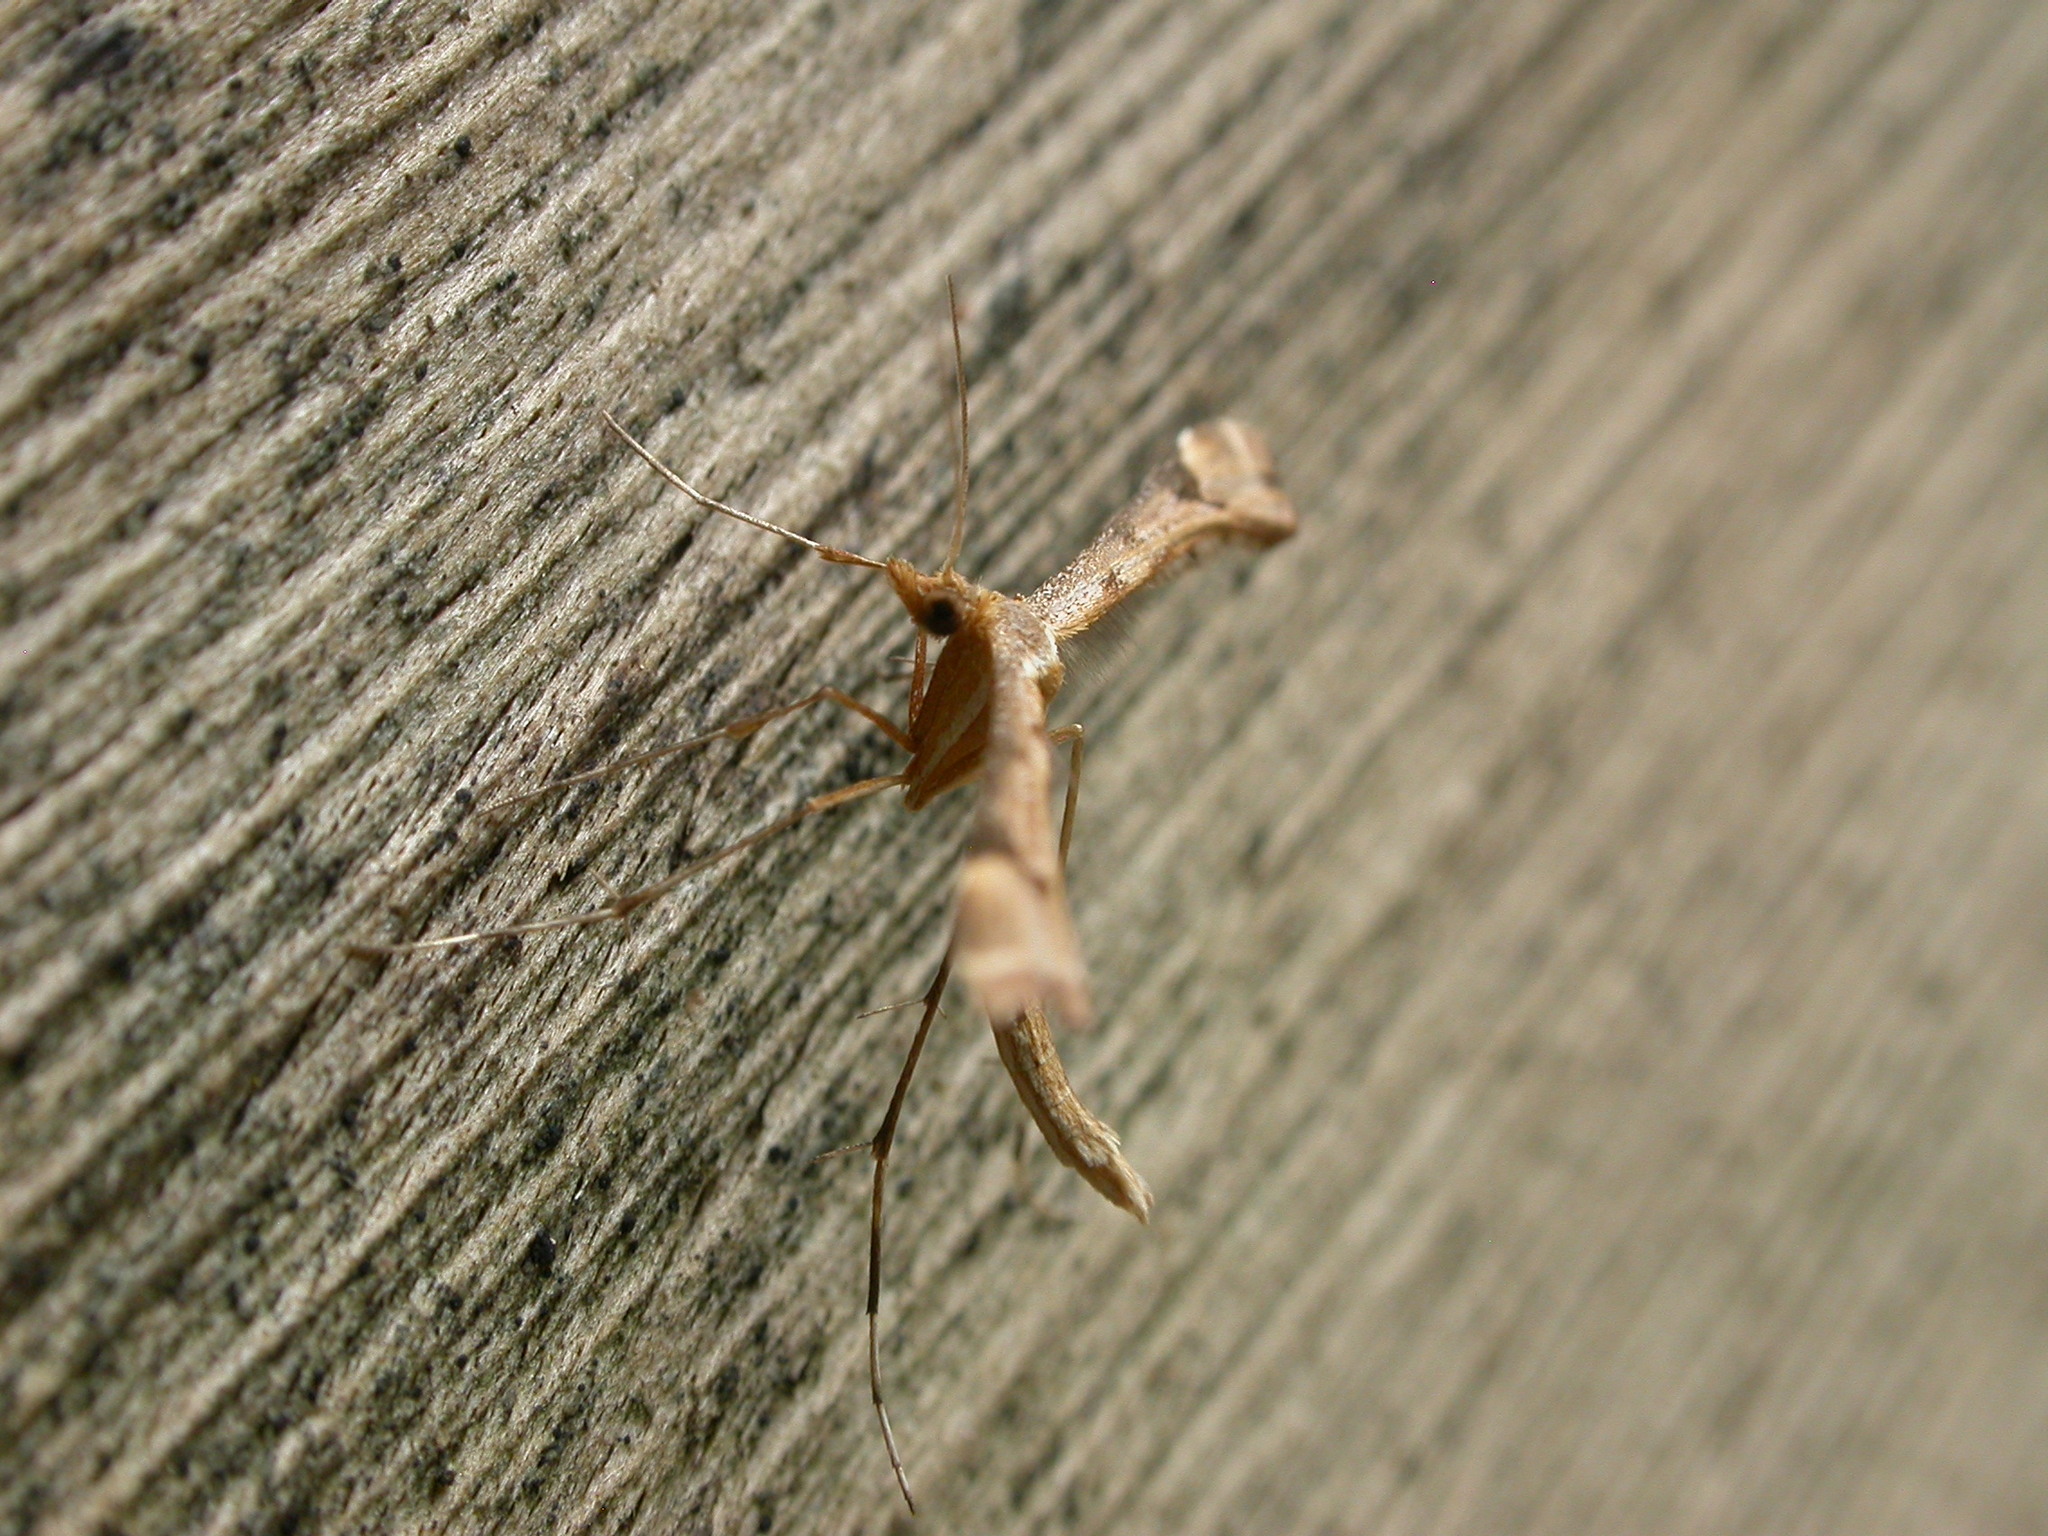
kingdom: Animalia
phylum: Arthropoda
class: Insecta
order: Lepidoptera
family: Pterophoridae
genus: Sinpunctiptilia
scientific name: Sinpunctiptilia emissalis
